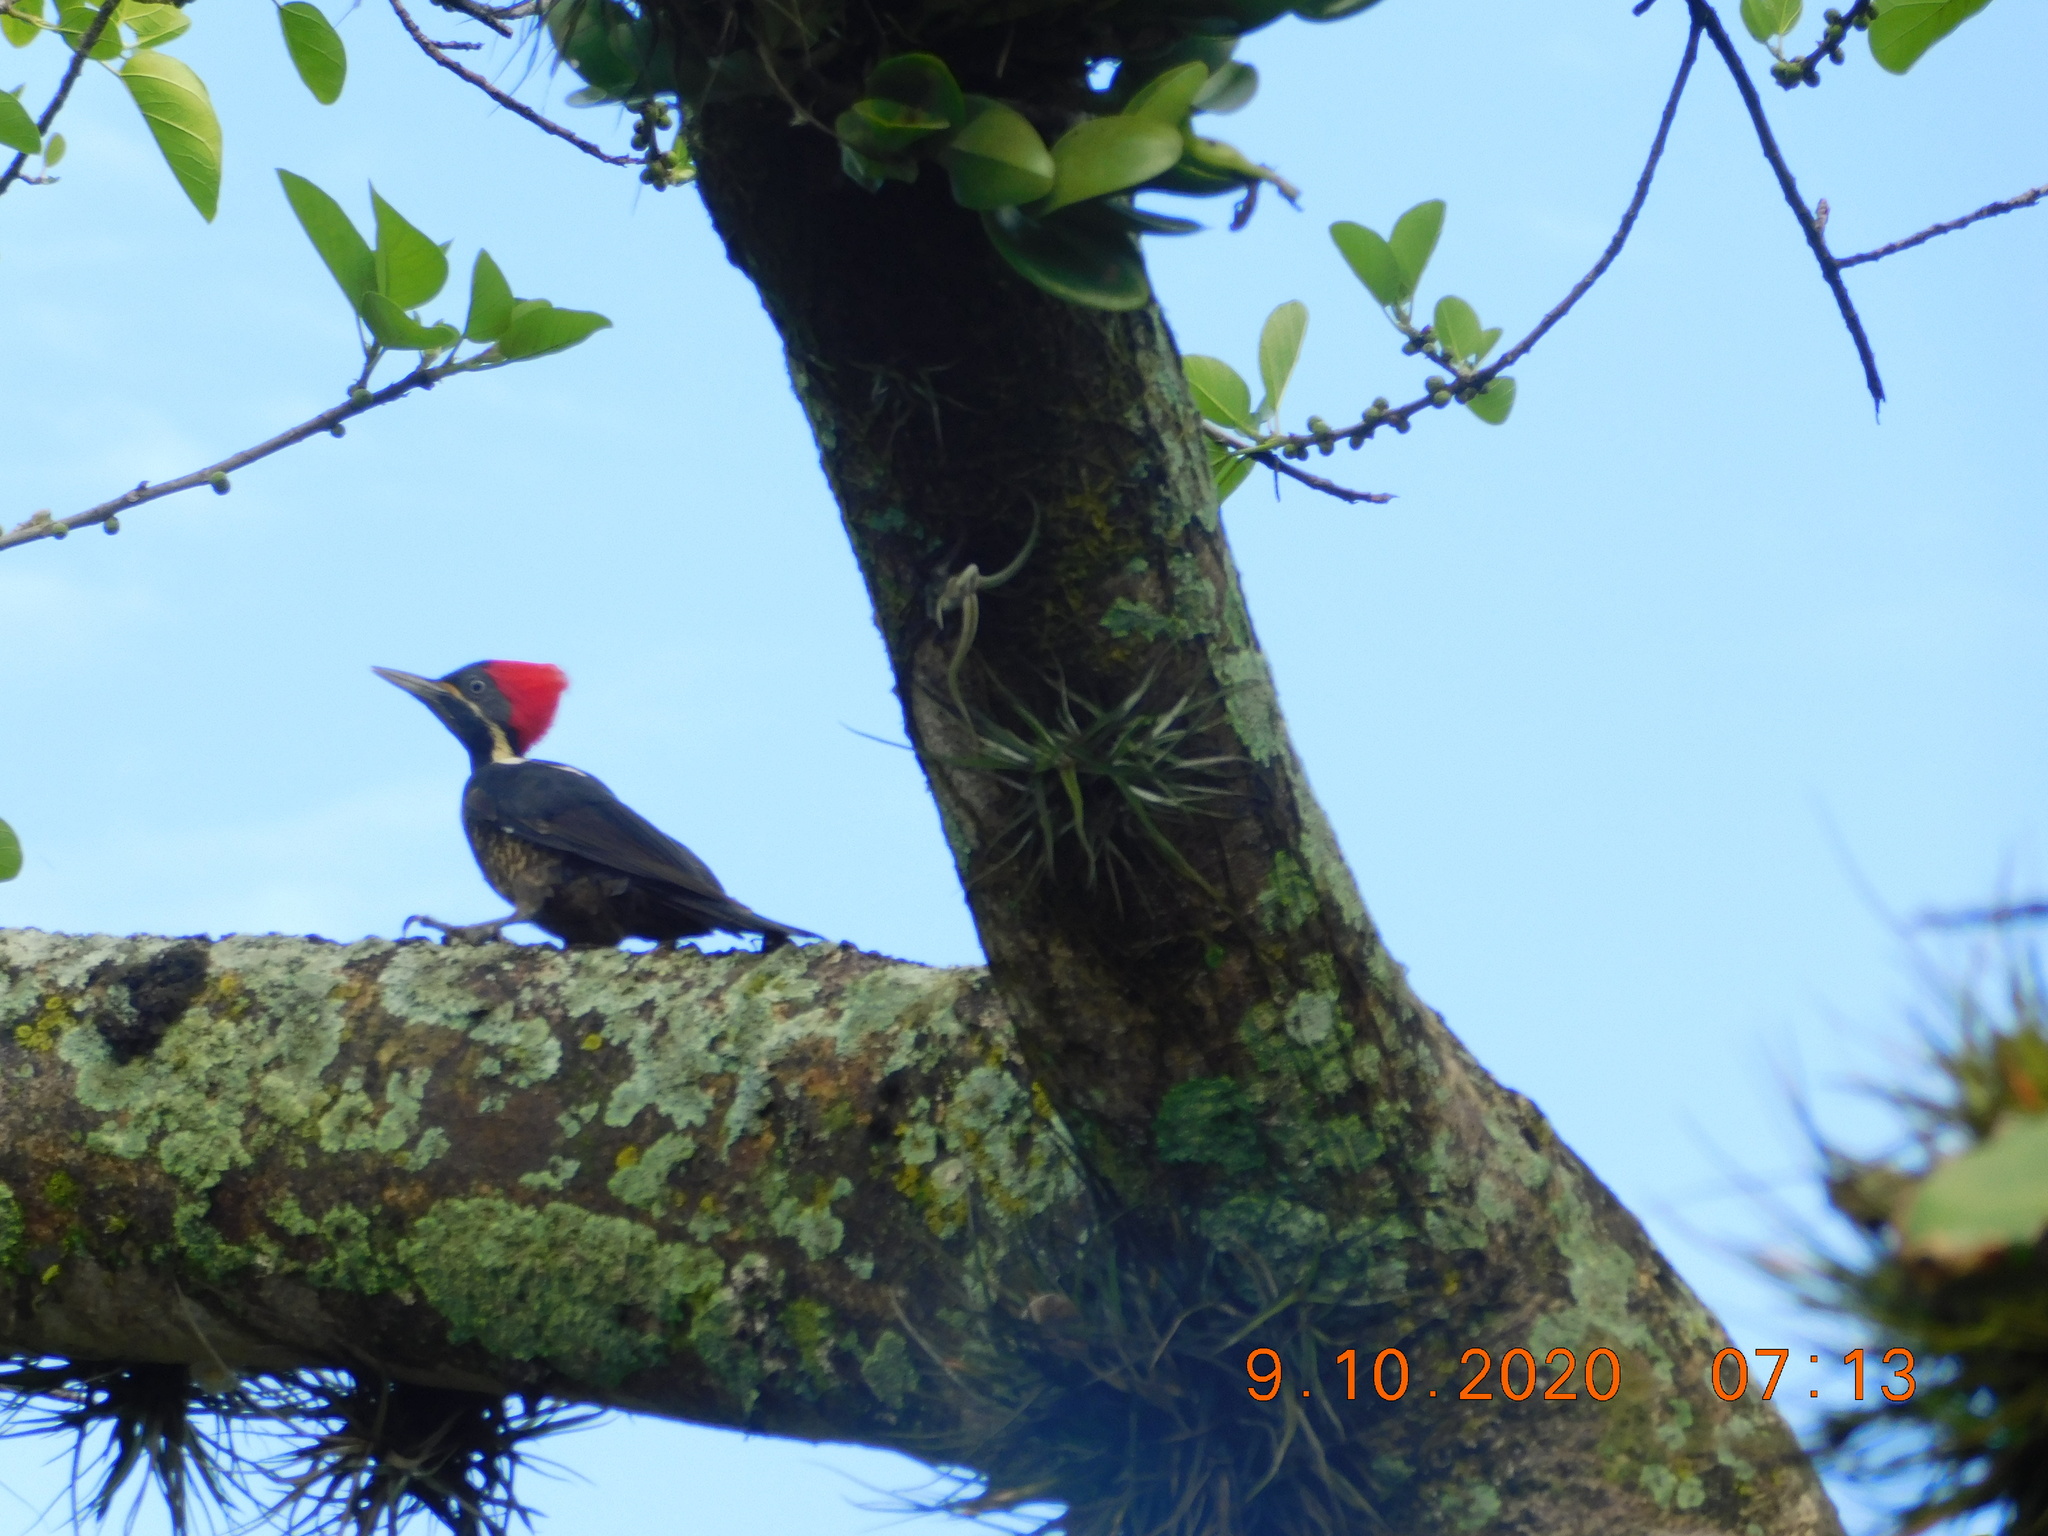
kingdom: Animalia
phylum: Chordata
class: Aves
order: Piciformes
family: Picidae
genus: Dryocopus
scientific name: Dryocopus lineatus
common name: Lineated woodpecker
